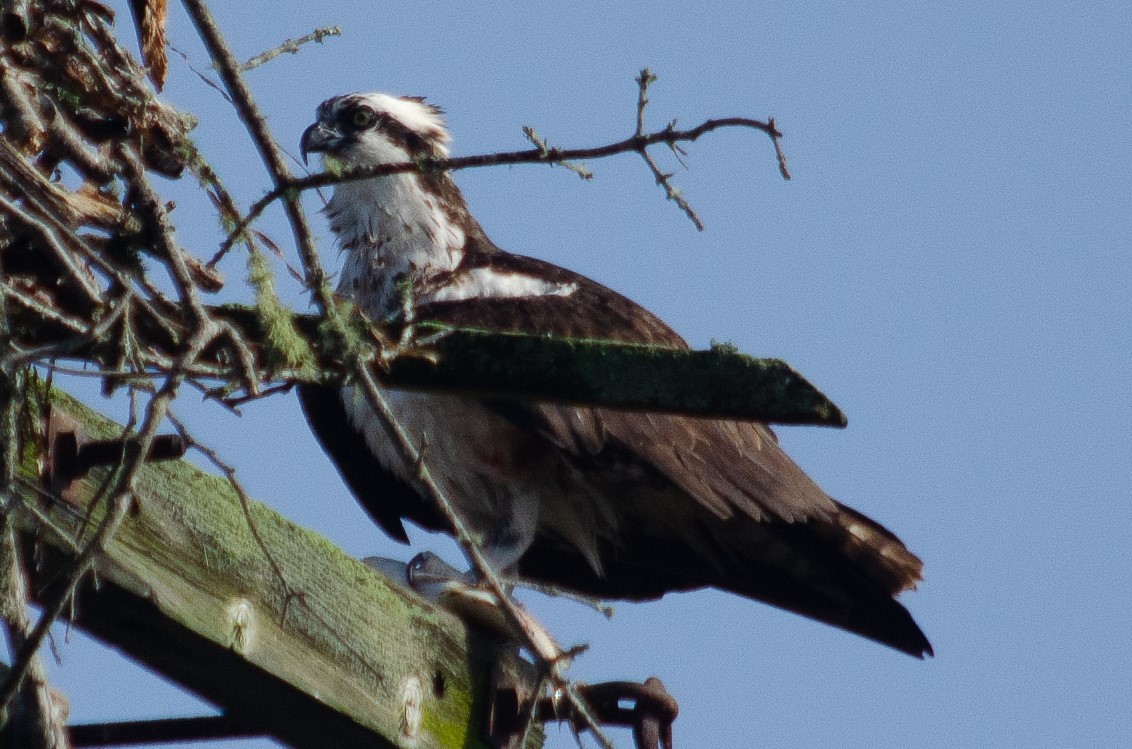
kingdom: Animalia
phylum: Chordata
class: Aves
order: Accipitriformes
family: Pandionidae
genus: Pandion
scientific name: Pandion haliaetus
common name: Osprey
